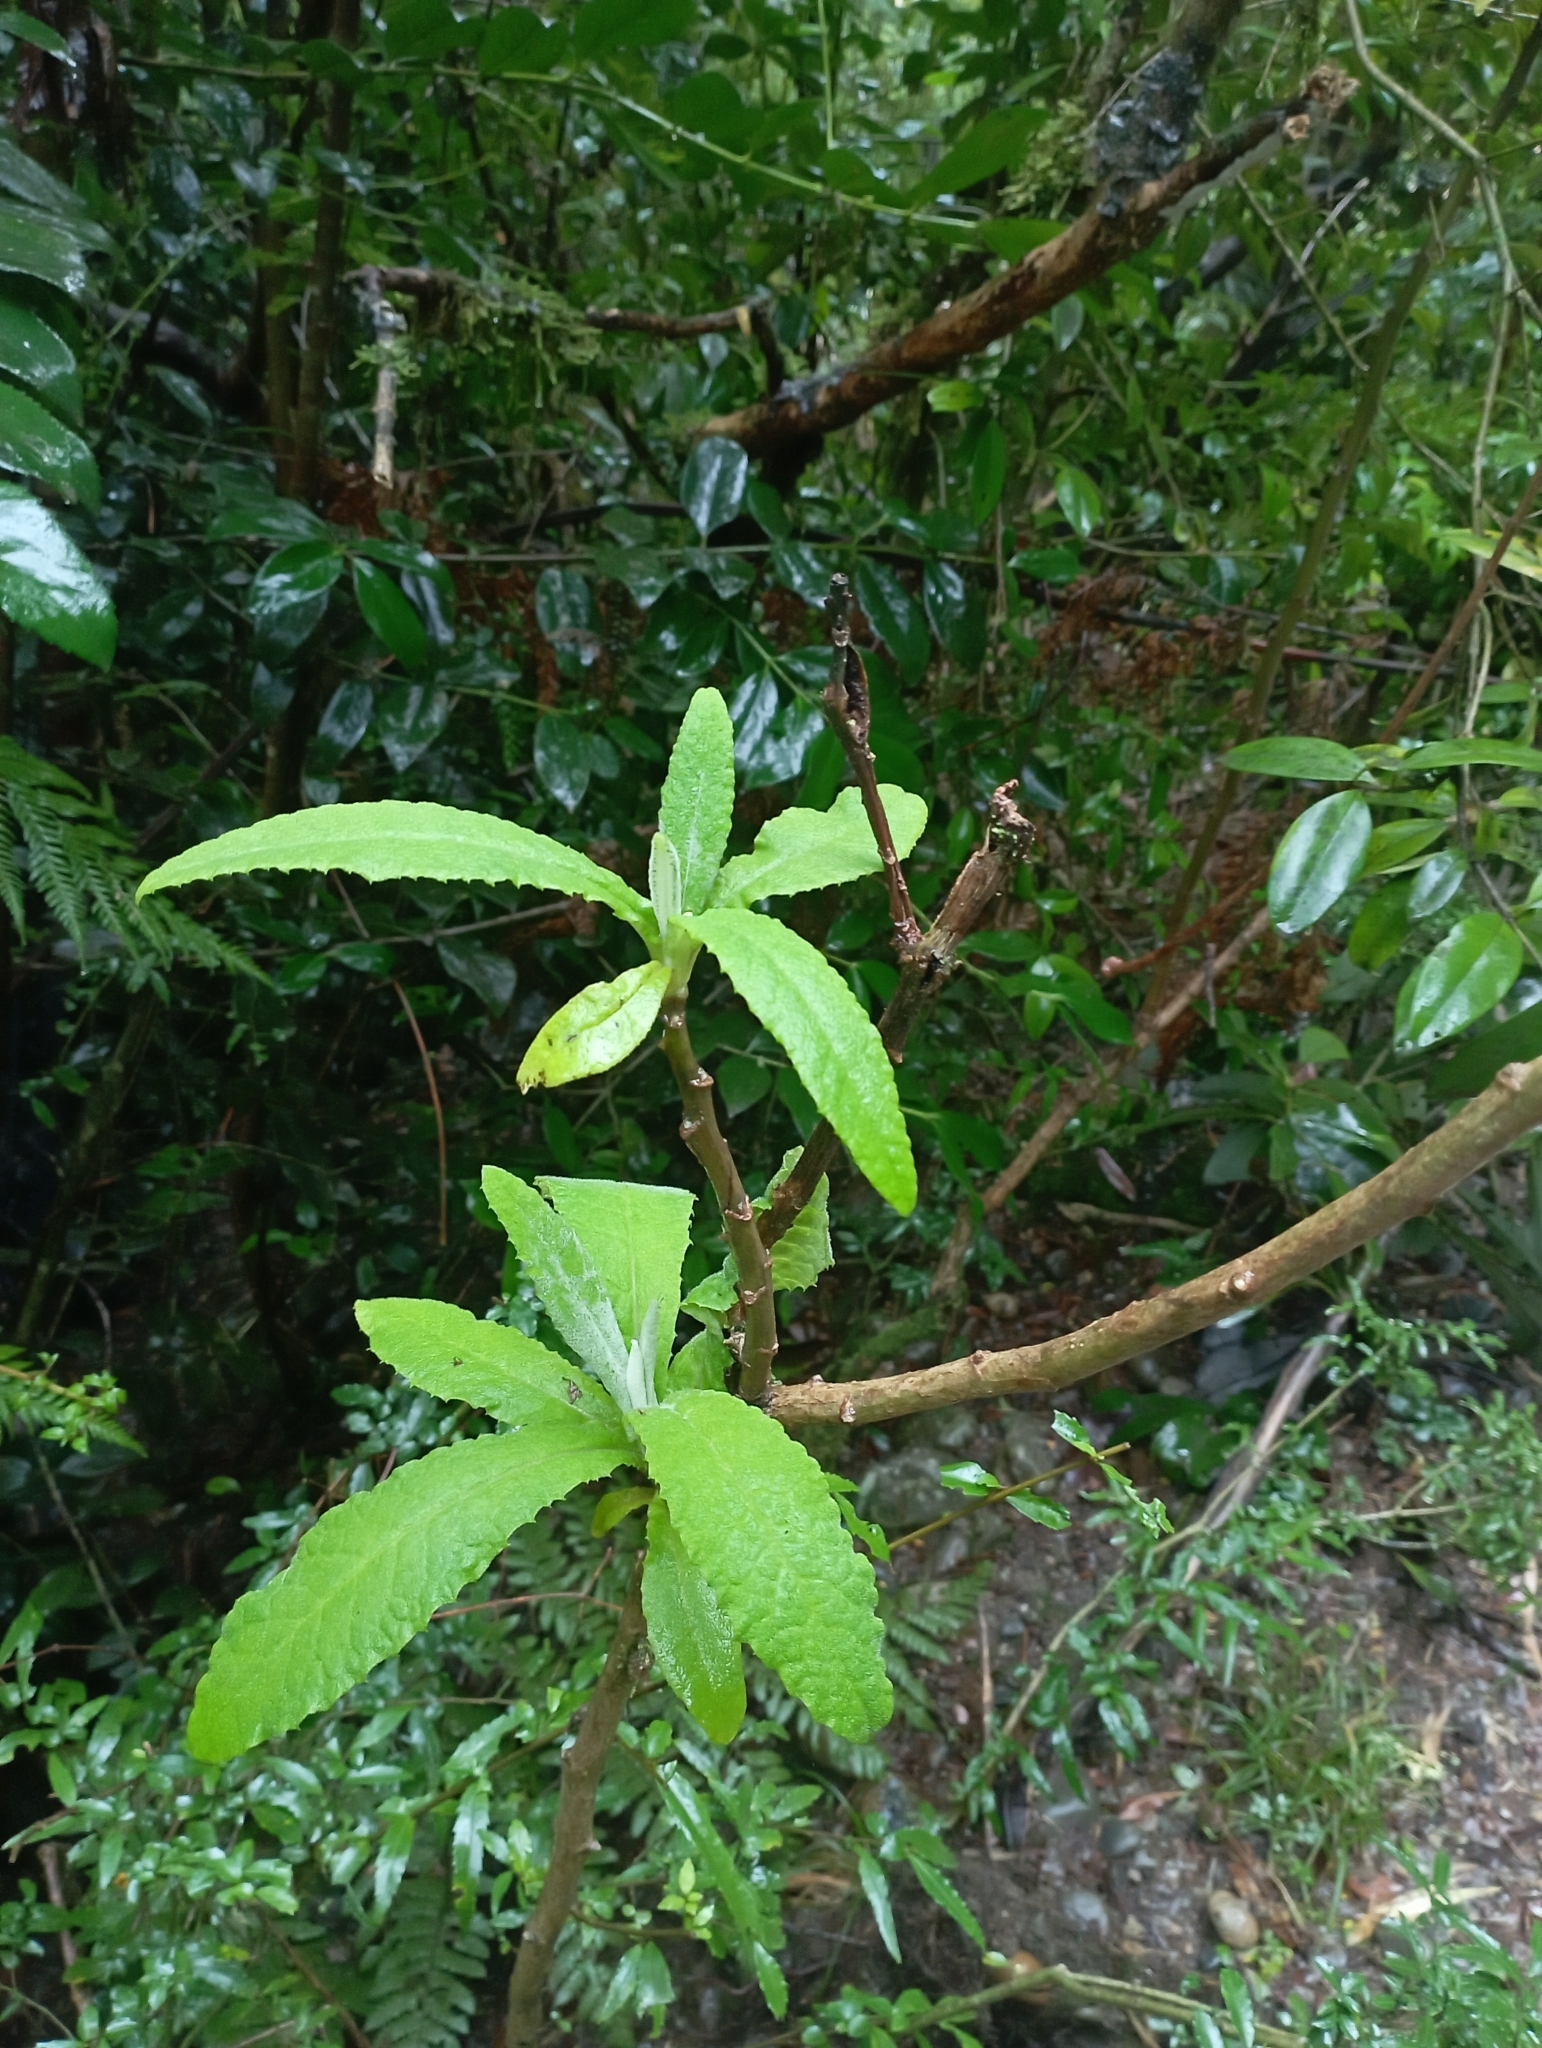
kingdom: Plantae
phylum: Tracheophyta
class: Magnoliopsida
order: Asterales
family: Asteraceae
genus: Acrisione
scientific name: Acrisione cymosa
